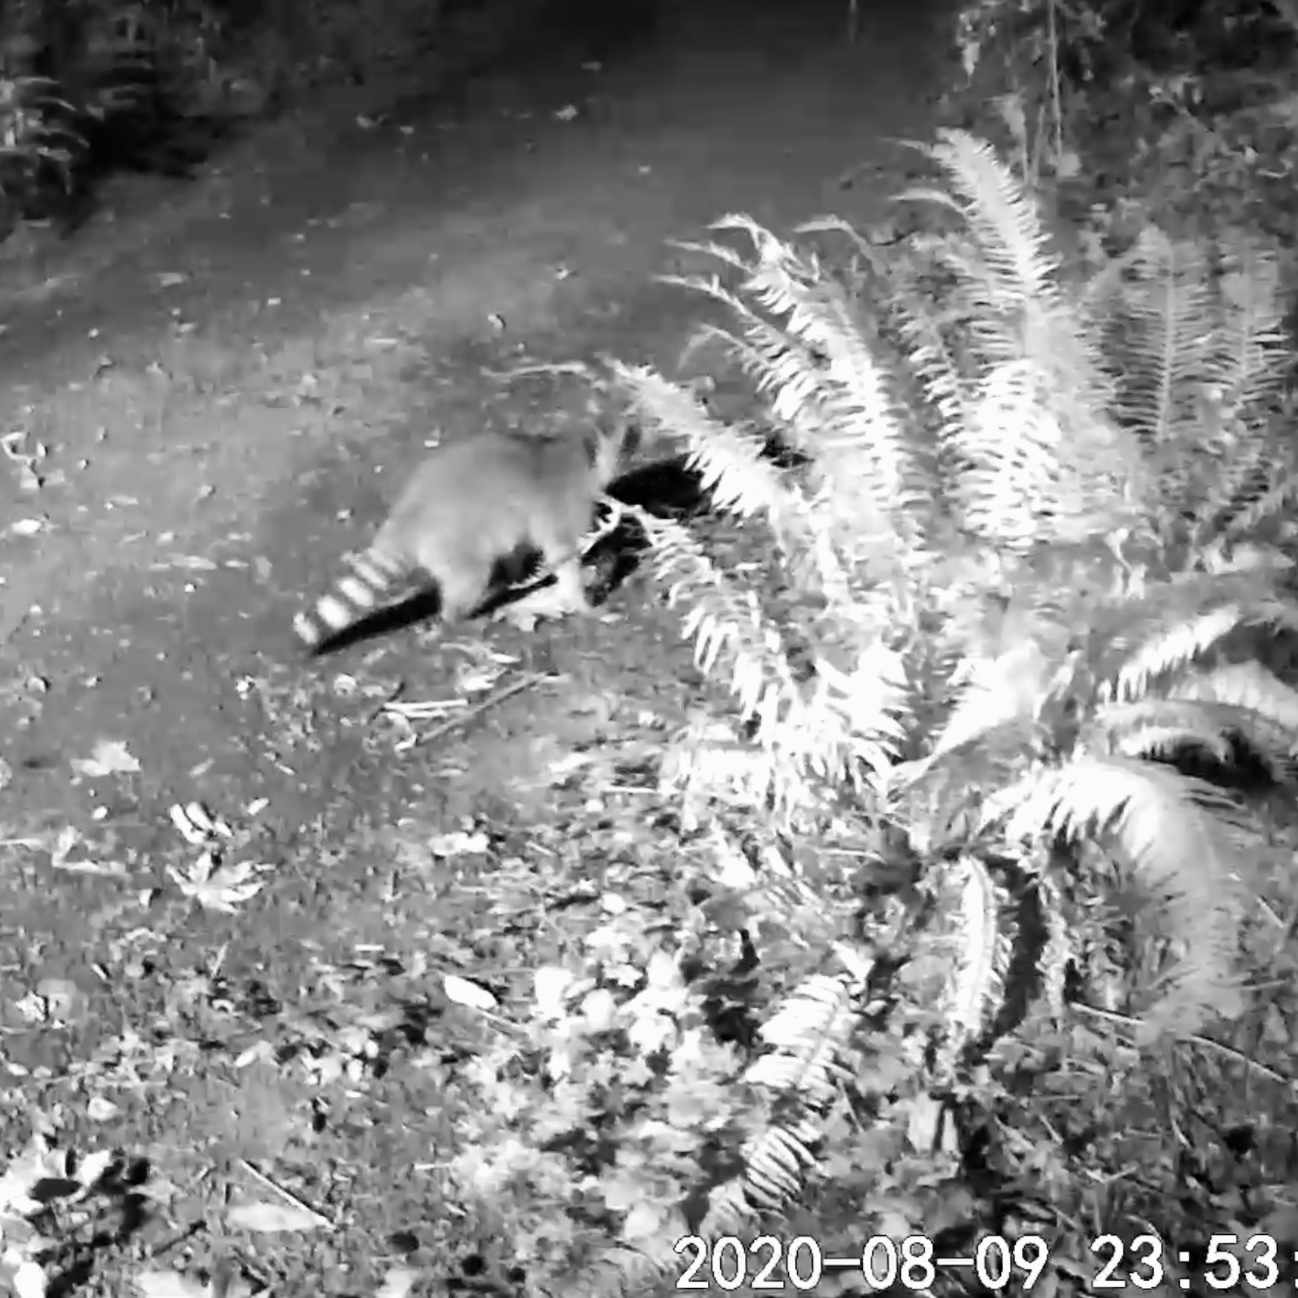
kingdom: Animalia
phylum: Chordata
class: Mammalia
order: Carnivora
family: Procyonidae
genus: Procyon
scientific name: Procyon lotor
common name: Raccoon
